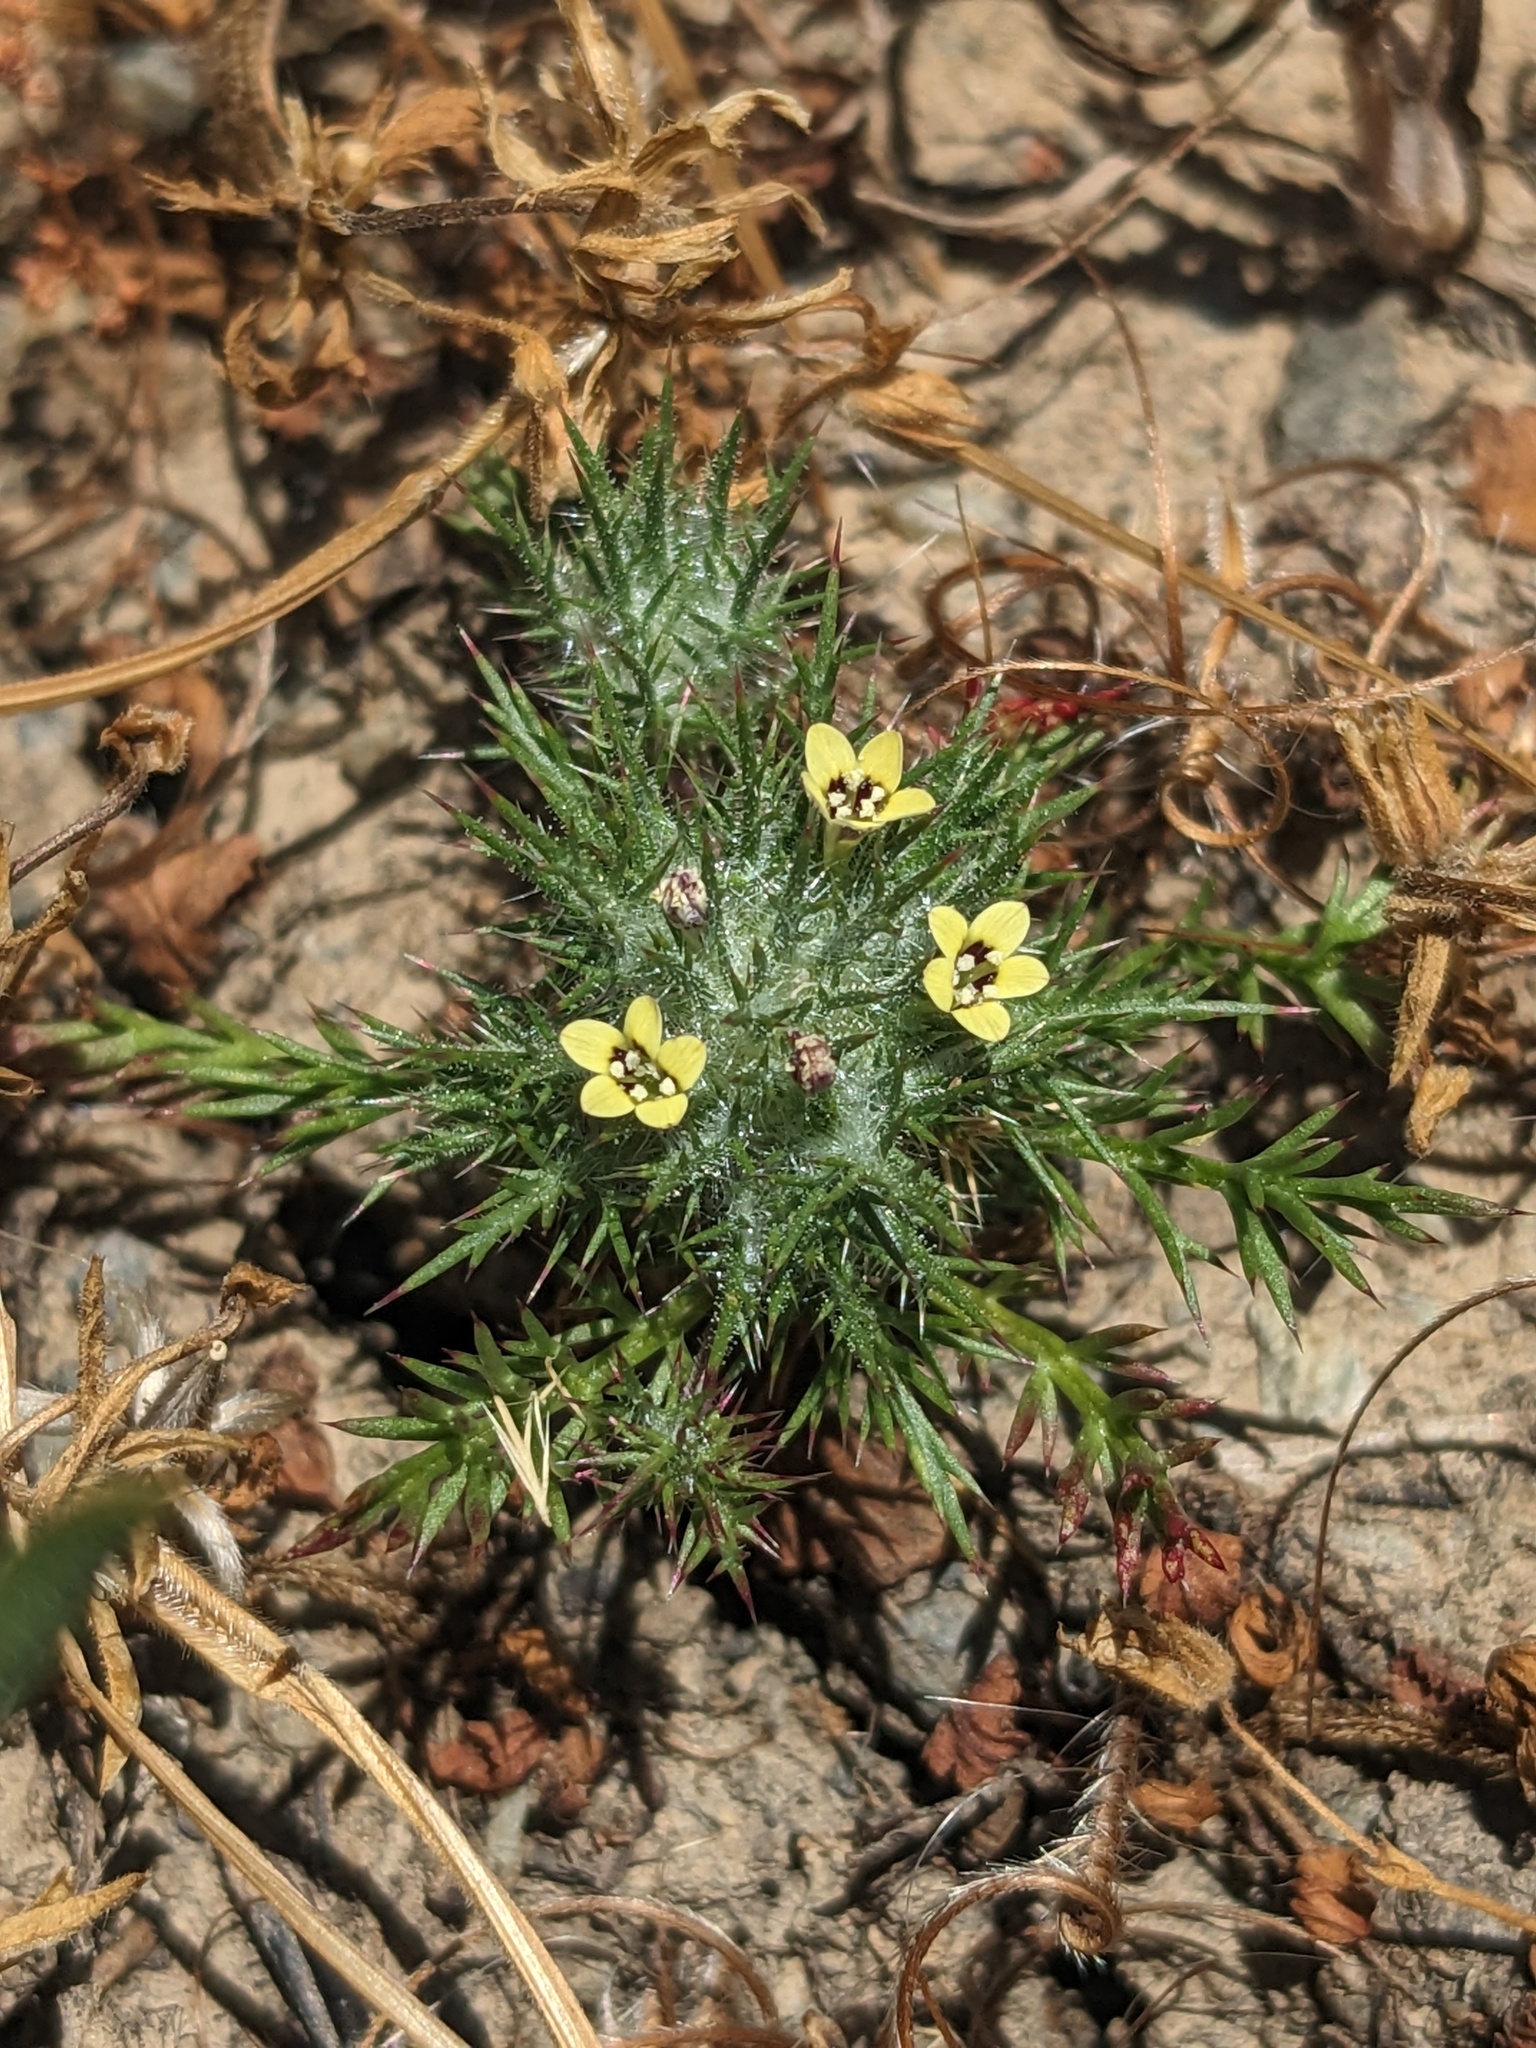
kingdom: Plantae
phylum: Tracheophyta
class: Magnoliopsida
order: Ericales
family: Polemoniaceae
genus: Navarretia
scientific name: Navarretia nigelliformis
